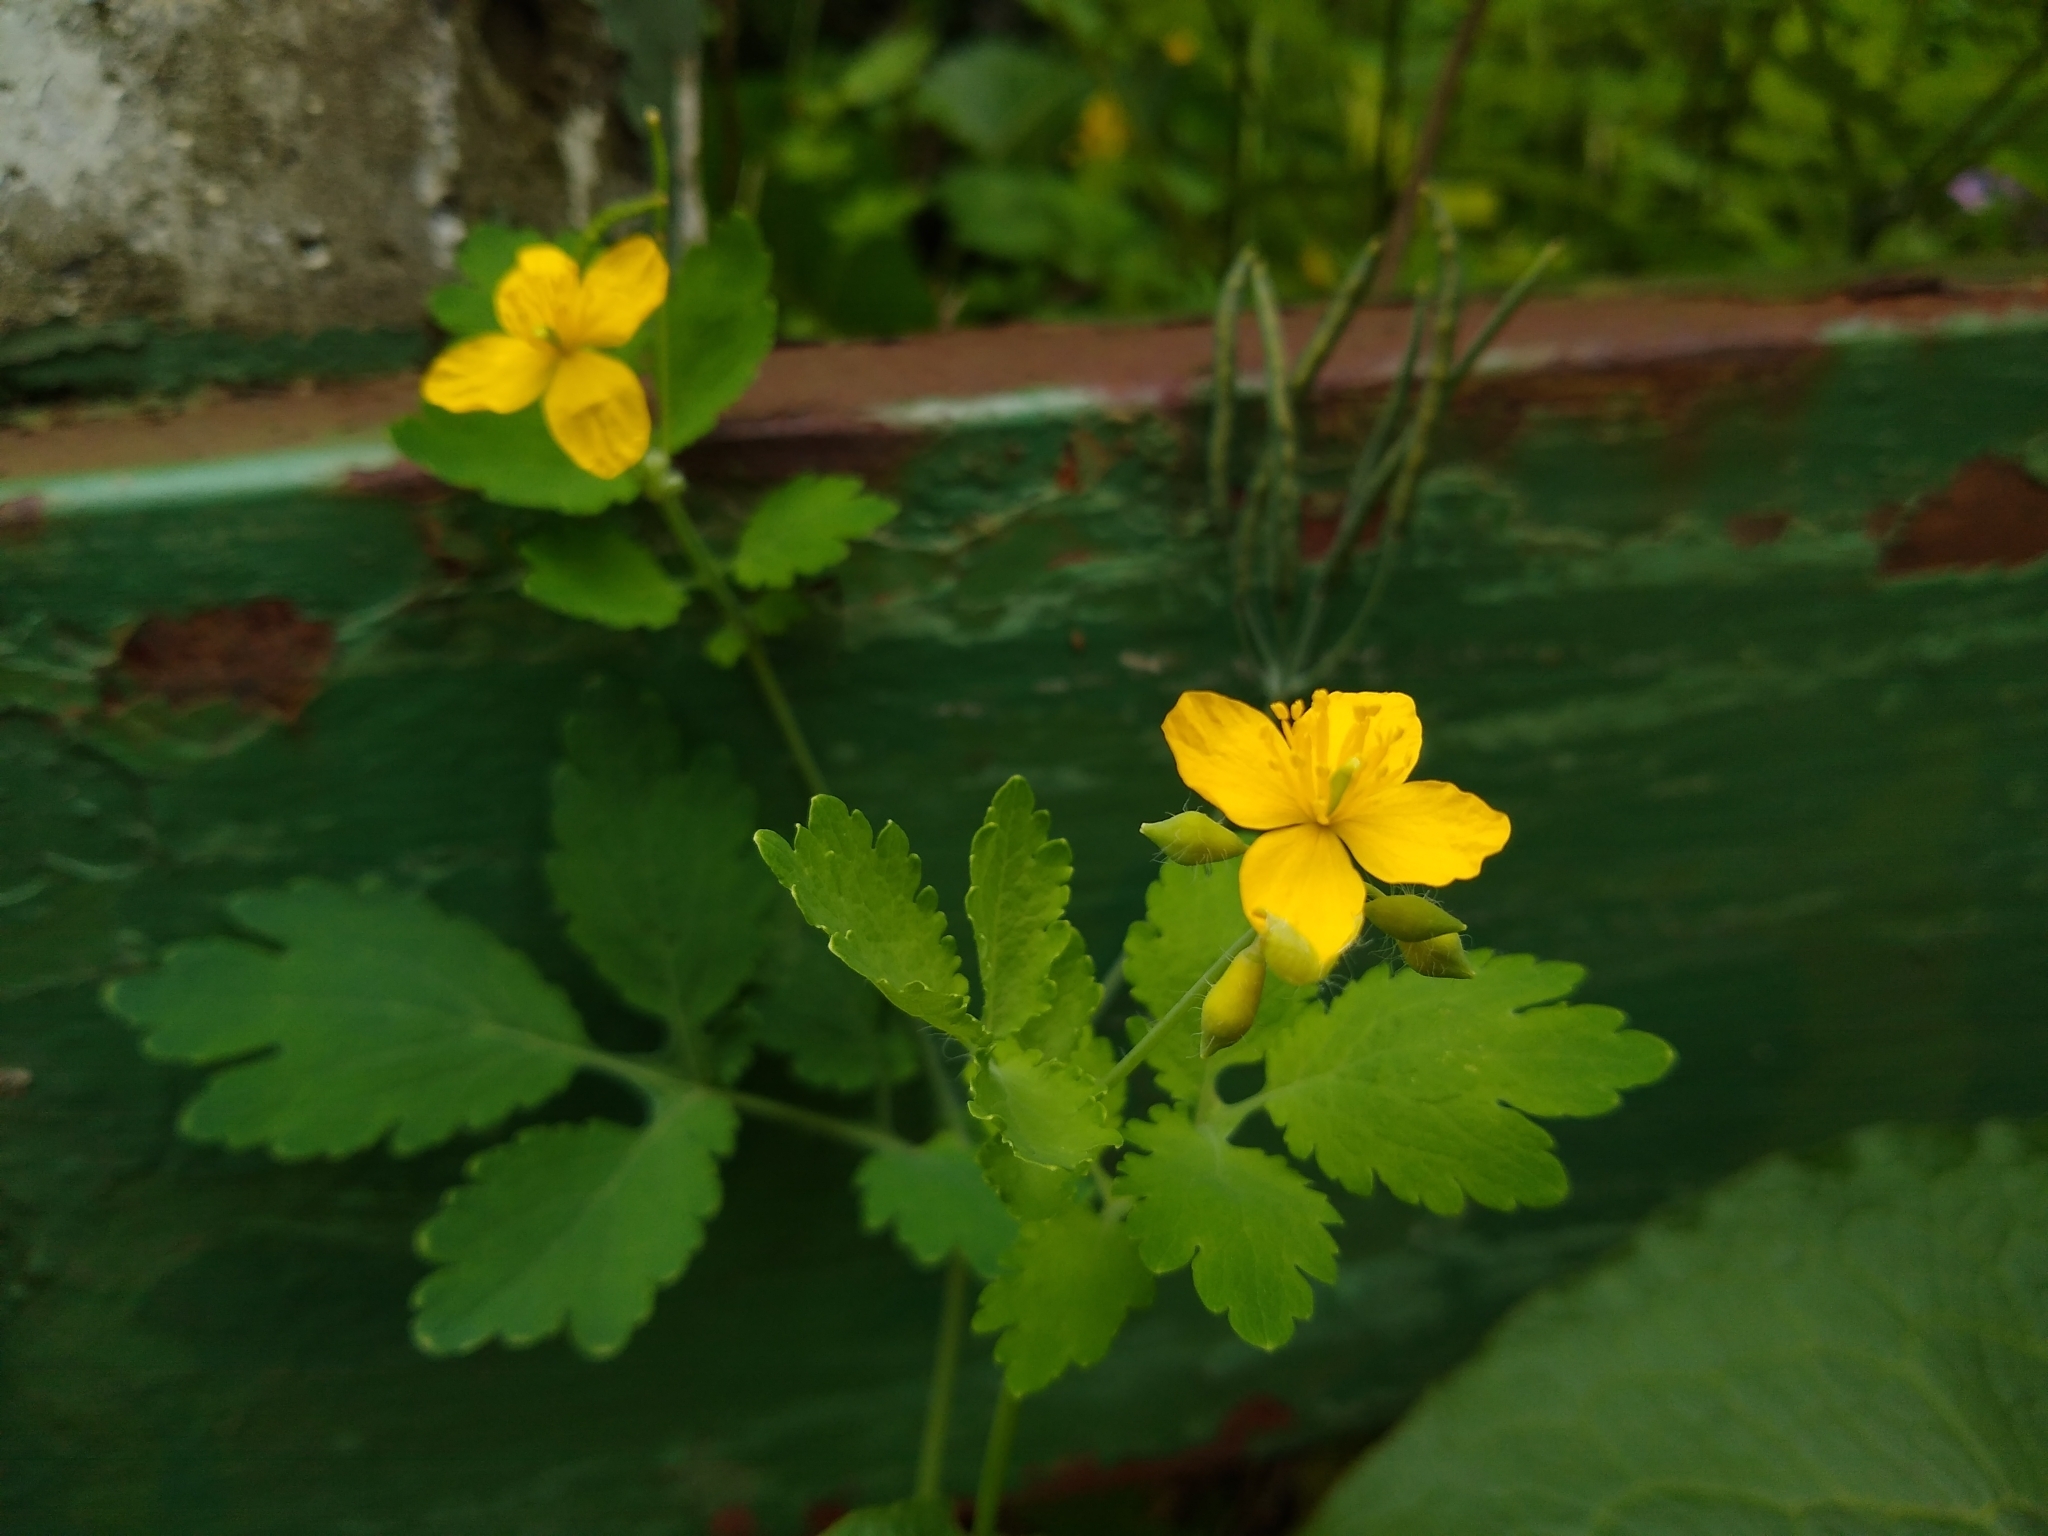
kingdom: Plantae
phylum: Tracheophyta
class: Magnoliopsida
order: Ranunculales
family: Papaveraceae
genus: Chelidonium
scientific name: Chelidonium majus
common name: Greater celandine
